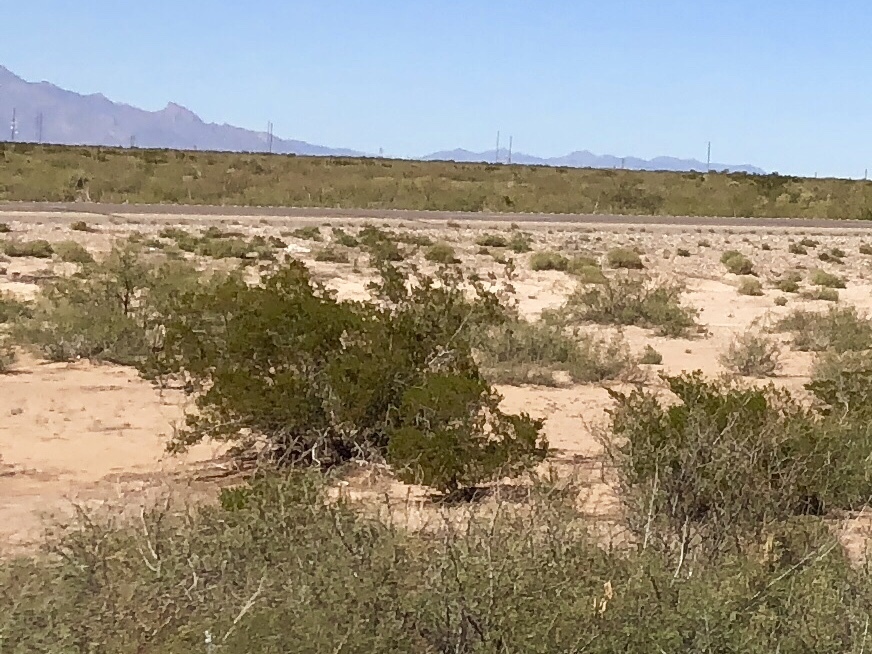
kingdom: Plantae
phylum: Tracheophyta
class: Magnoliopsida
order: Zygophyllales
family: Zygophyllaceae
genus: Larrea
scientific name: Larrea tridentata
